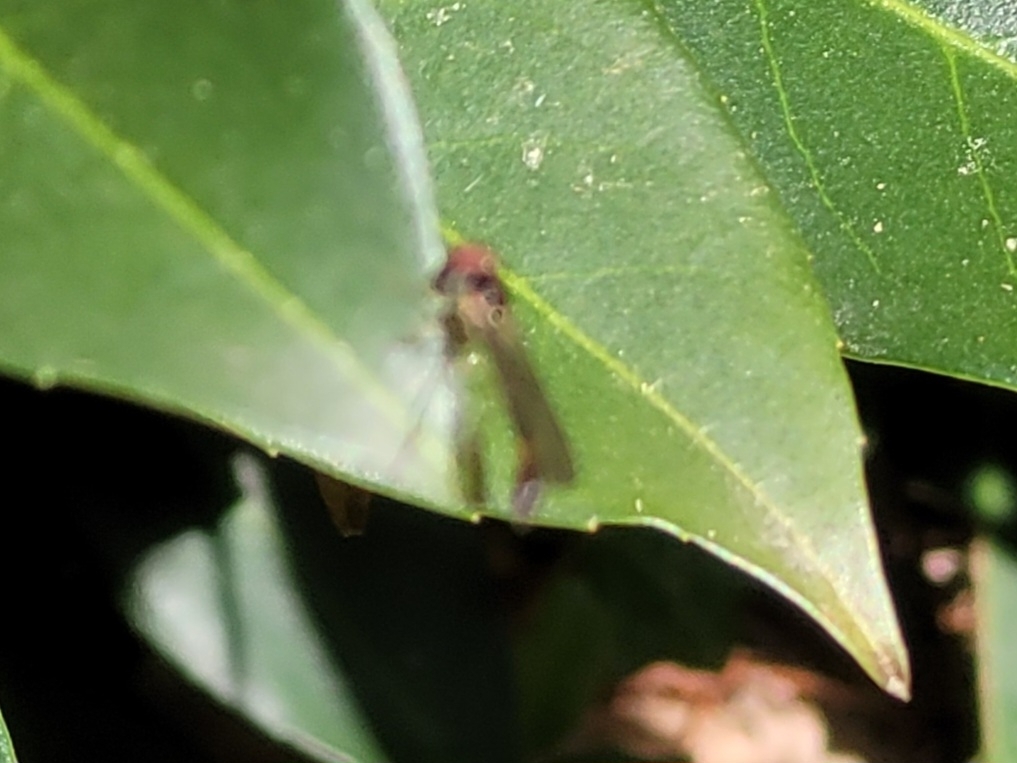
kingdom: Animalia
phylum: Arthropoda
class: Insecta
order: Diptera
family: Syrphidae
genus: Baccha
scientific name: Baccha elongata
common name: Common dainty
